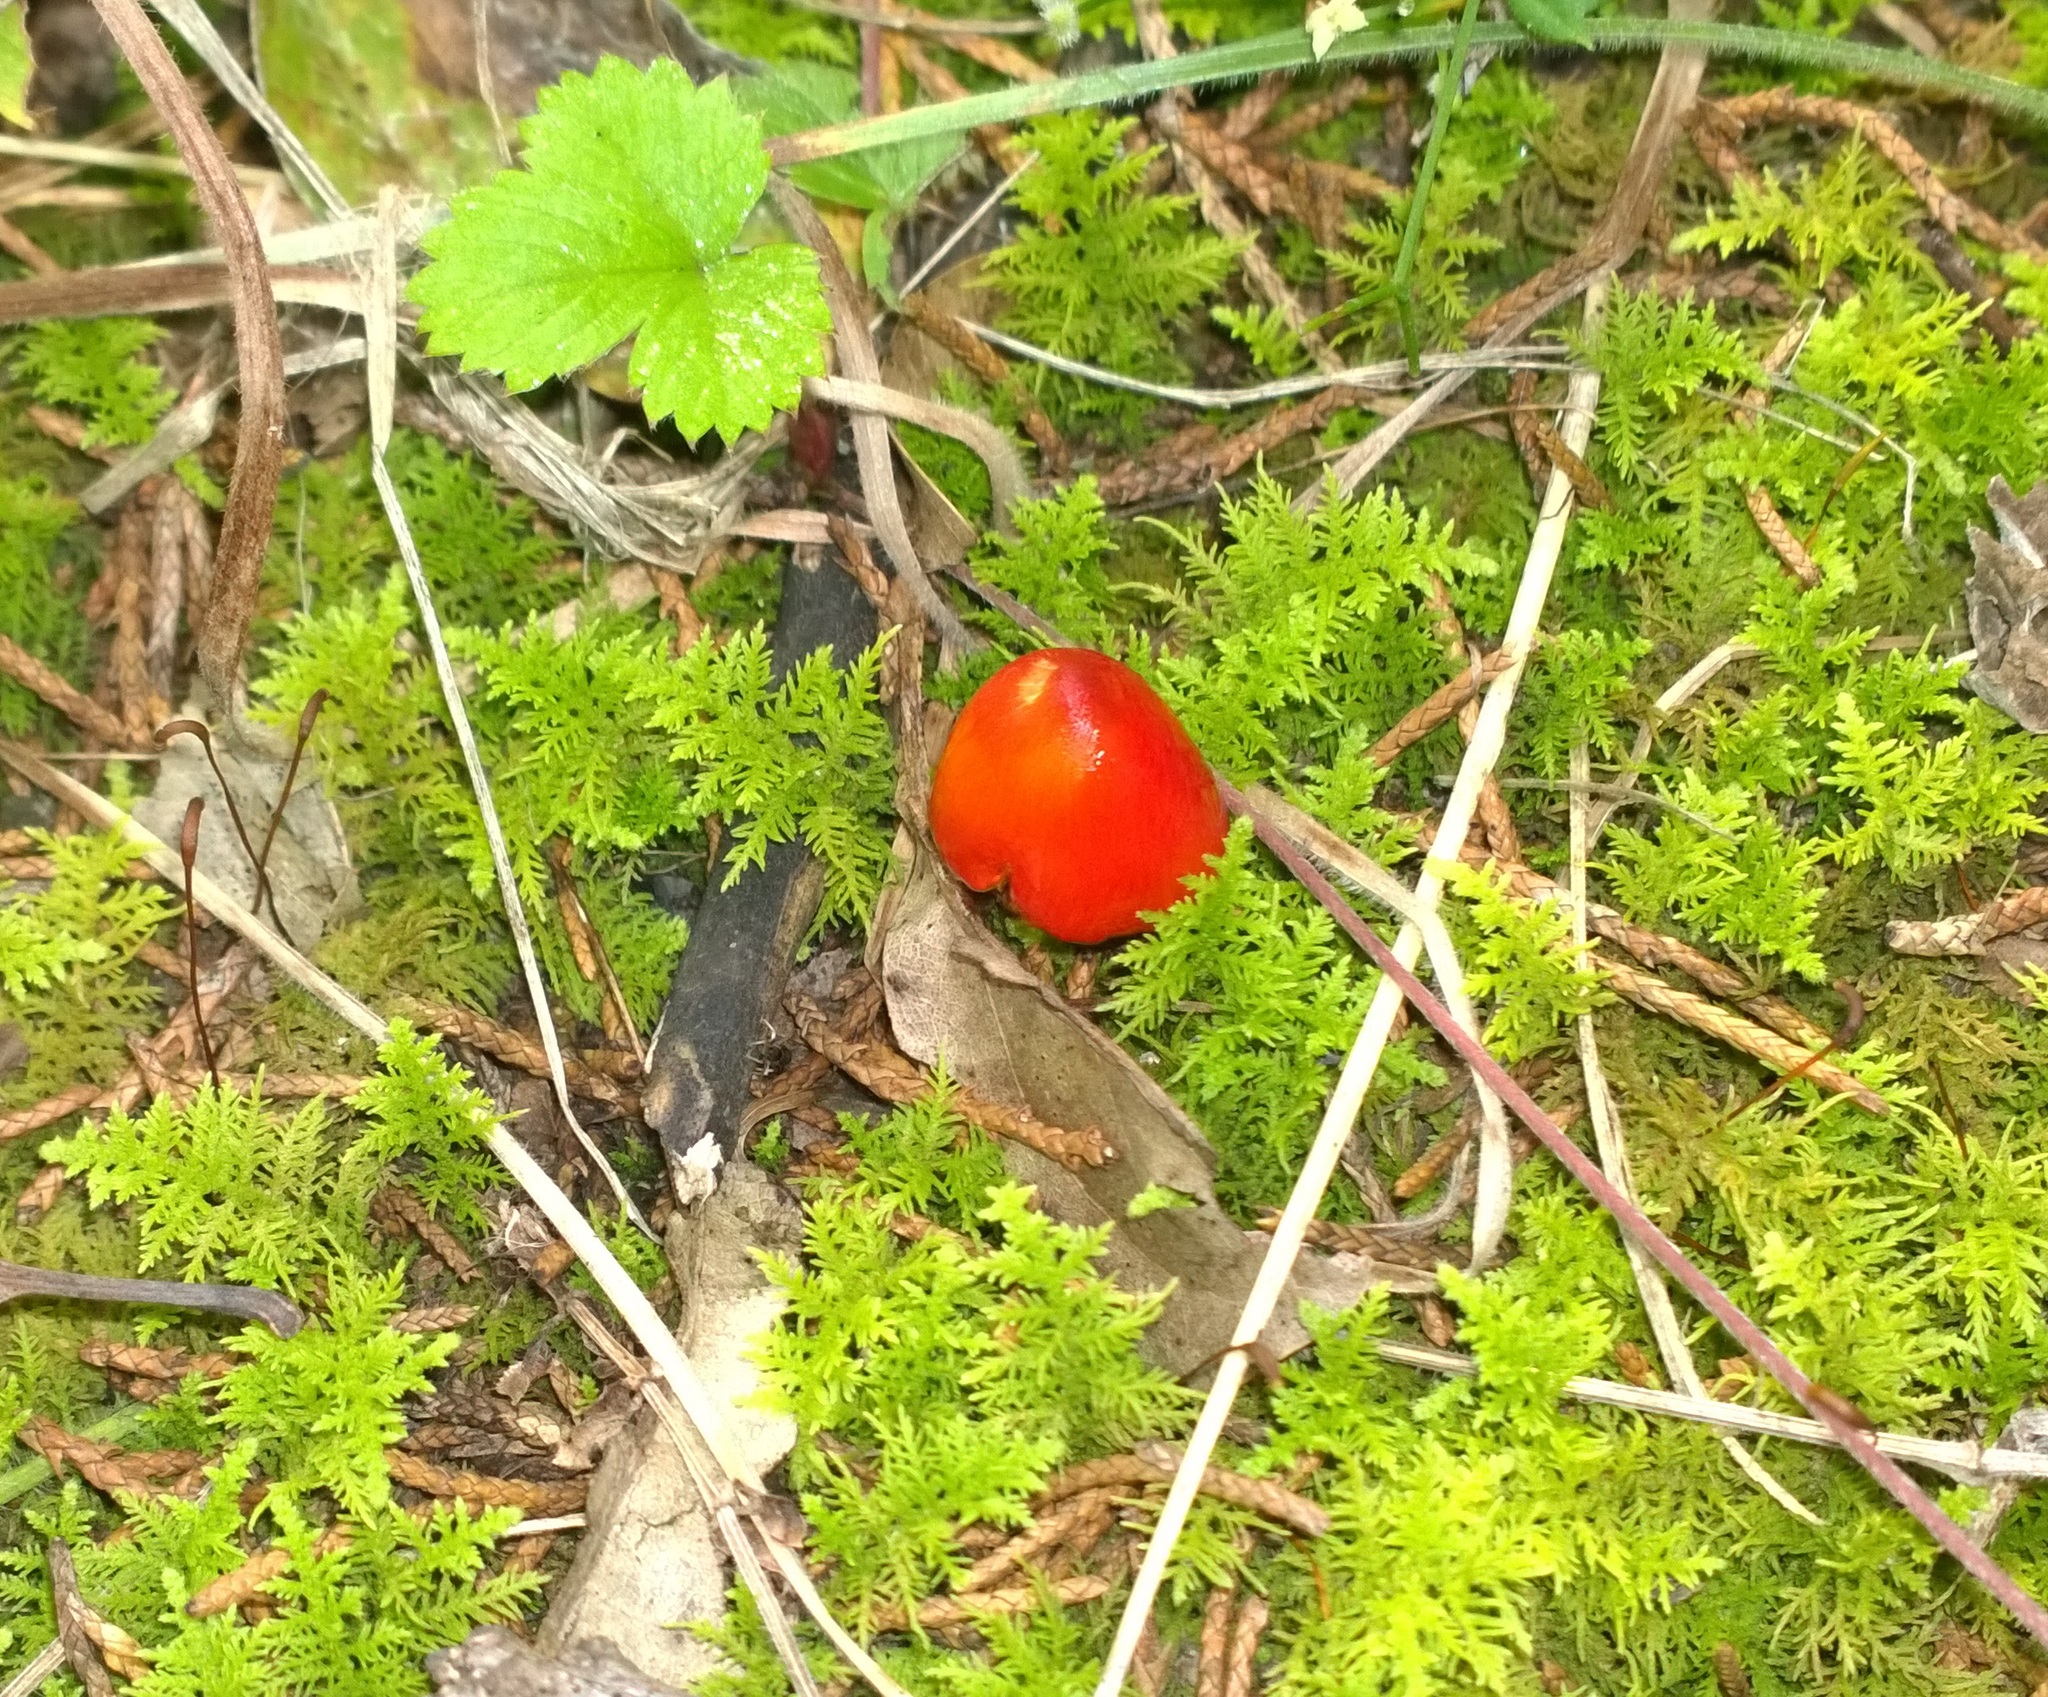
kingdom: Fungi
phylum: Basidiomycota
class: Agaricomycetes
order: Agaricales
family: Hygrophoraceae
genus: Hygrocybe
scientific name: Hygrocybe acutoconica
